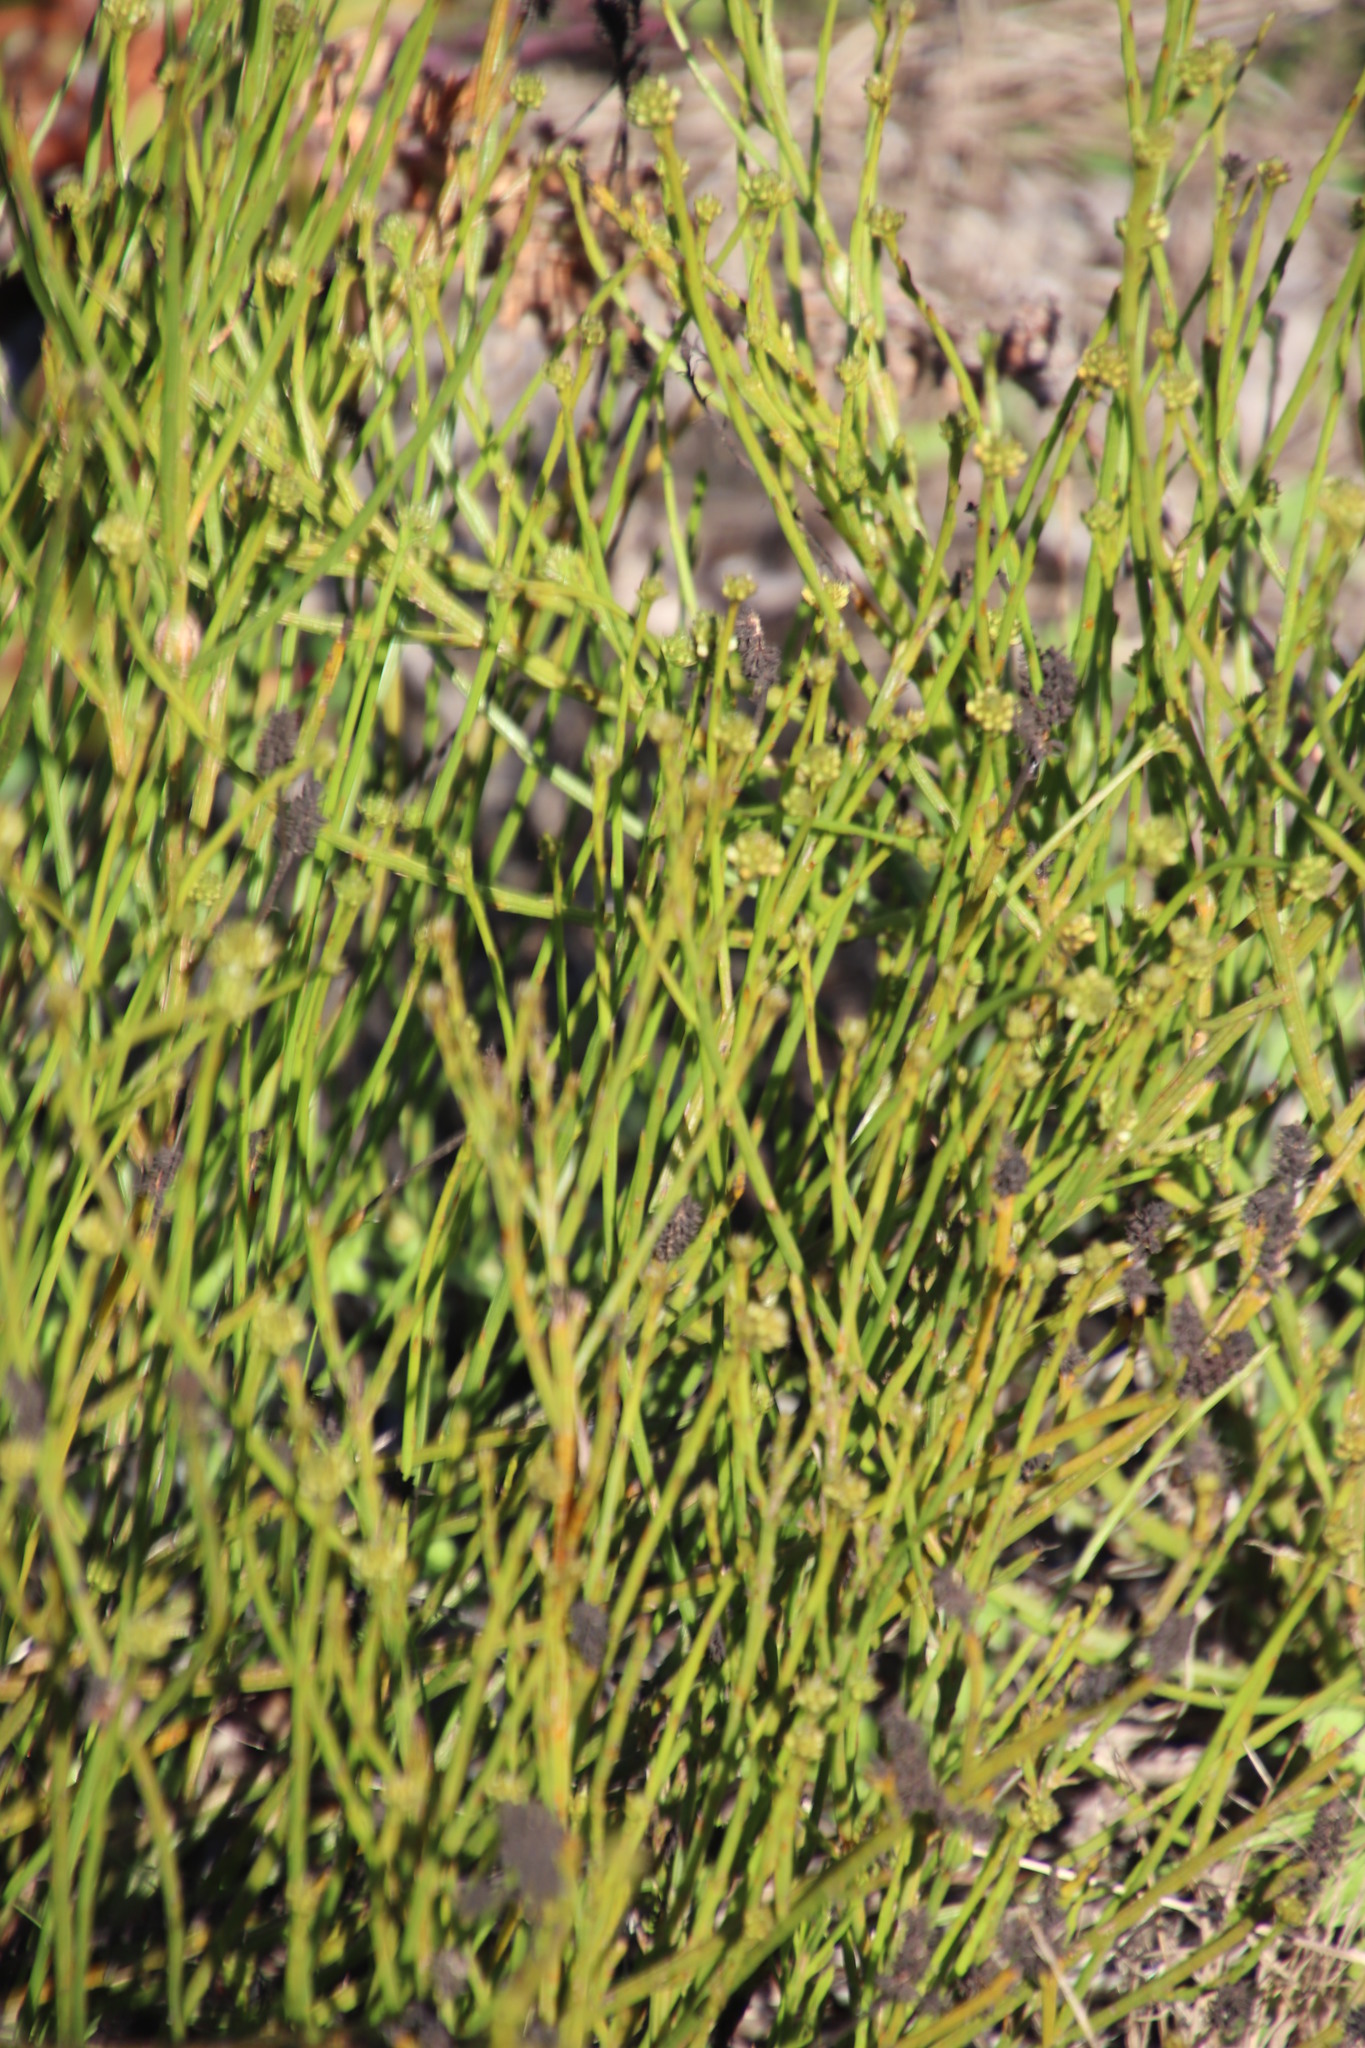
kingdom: Plantae
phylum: Tracheophyta
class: Magnoliopsida
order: Santalales
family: Thesiaceae
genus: Thesium
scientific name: Thesium aggregatum
